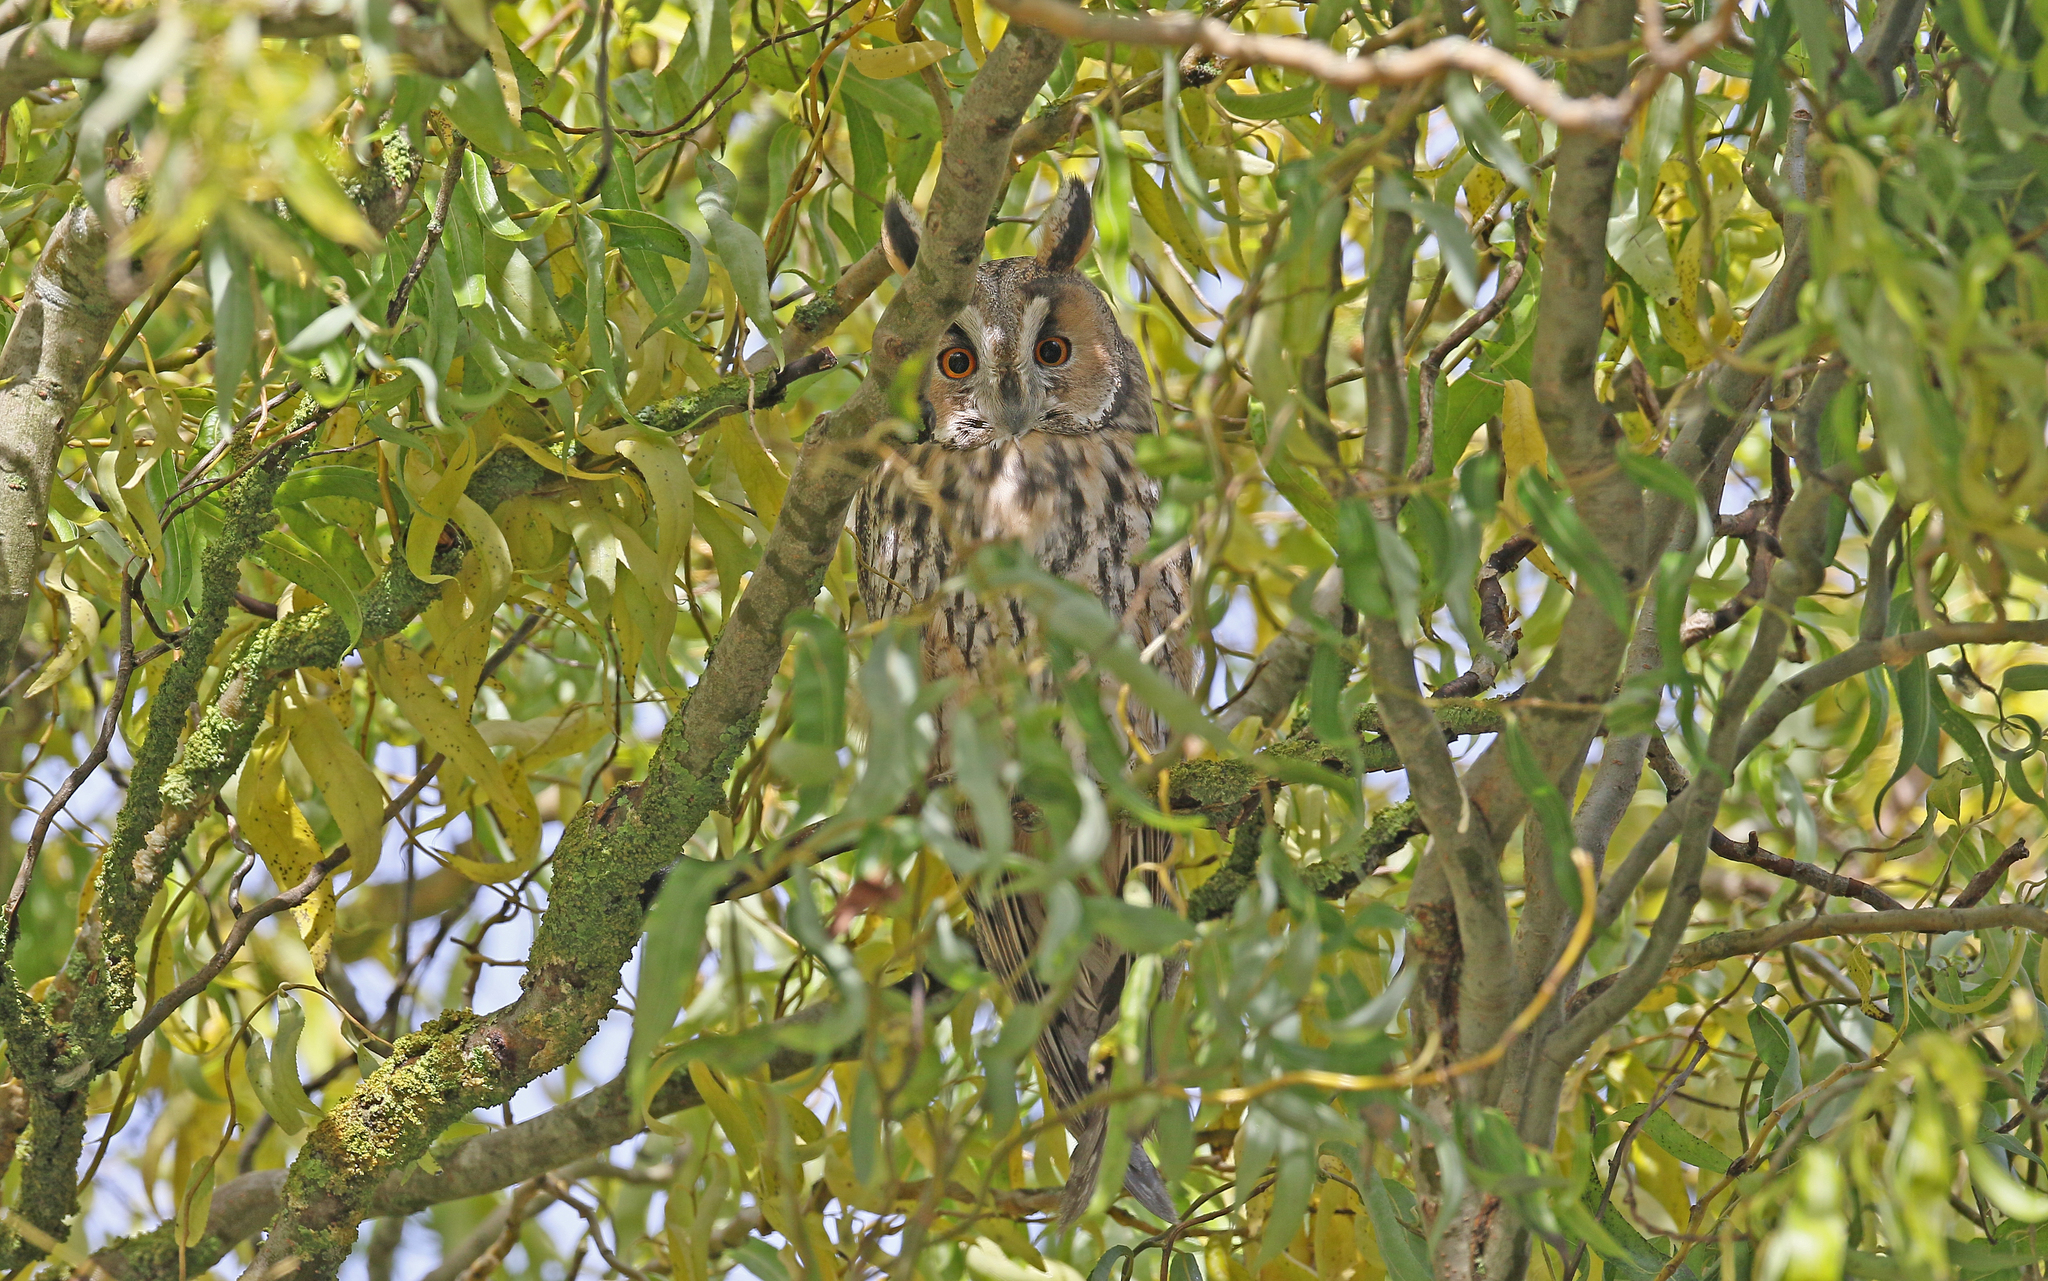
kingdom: Animalia
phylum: Chordata
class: Aves
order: Strigiformes
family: Strigidae
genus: Asio
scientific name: Asio otus
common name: Long-eared owl
